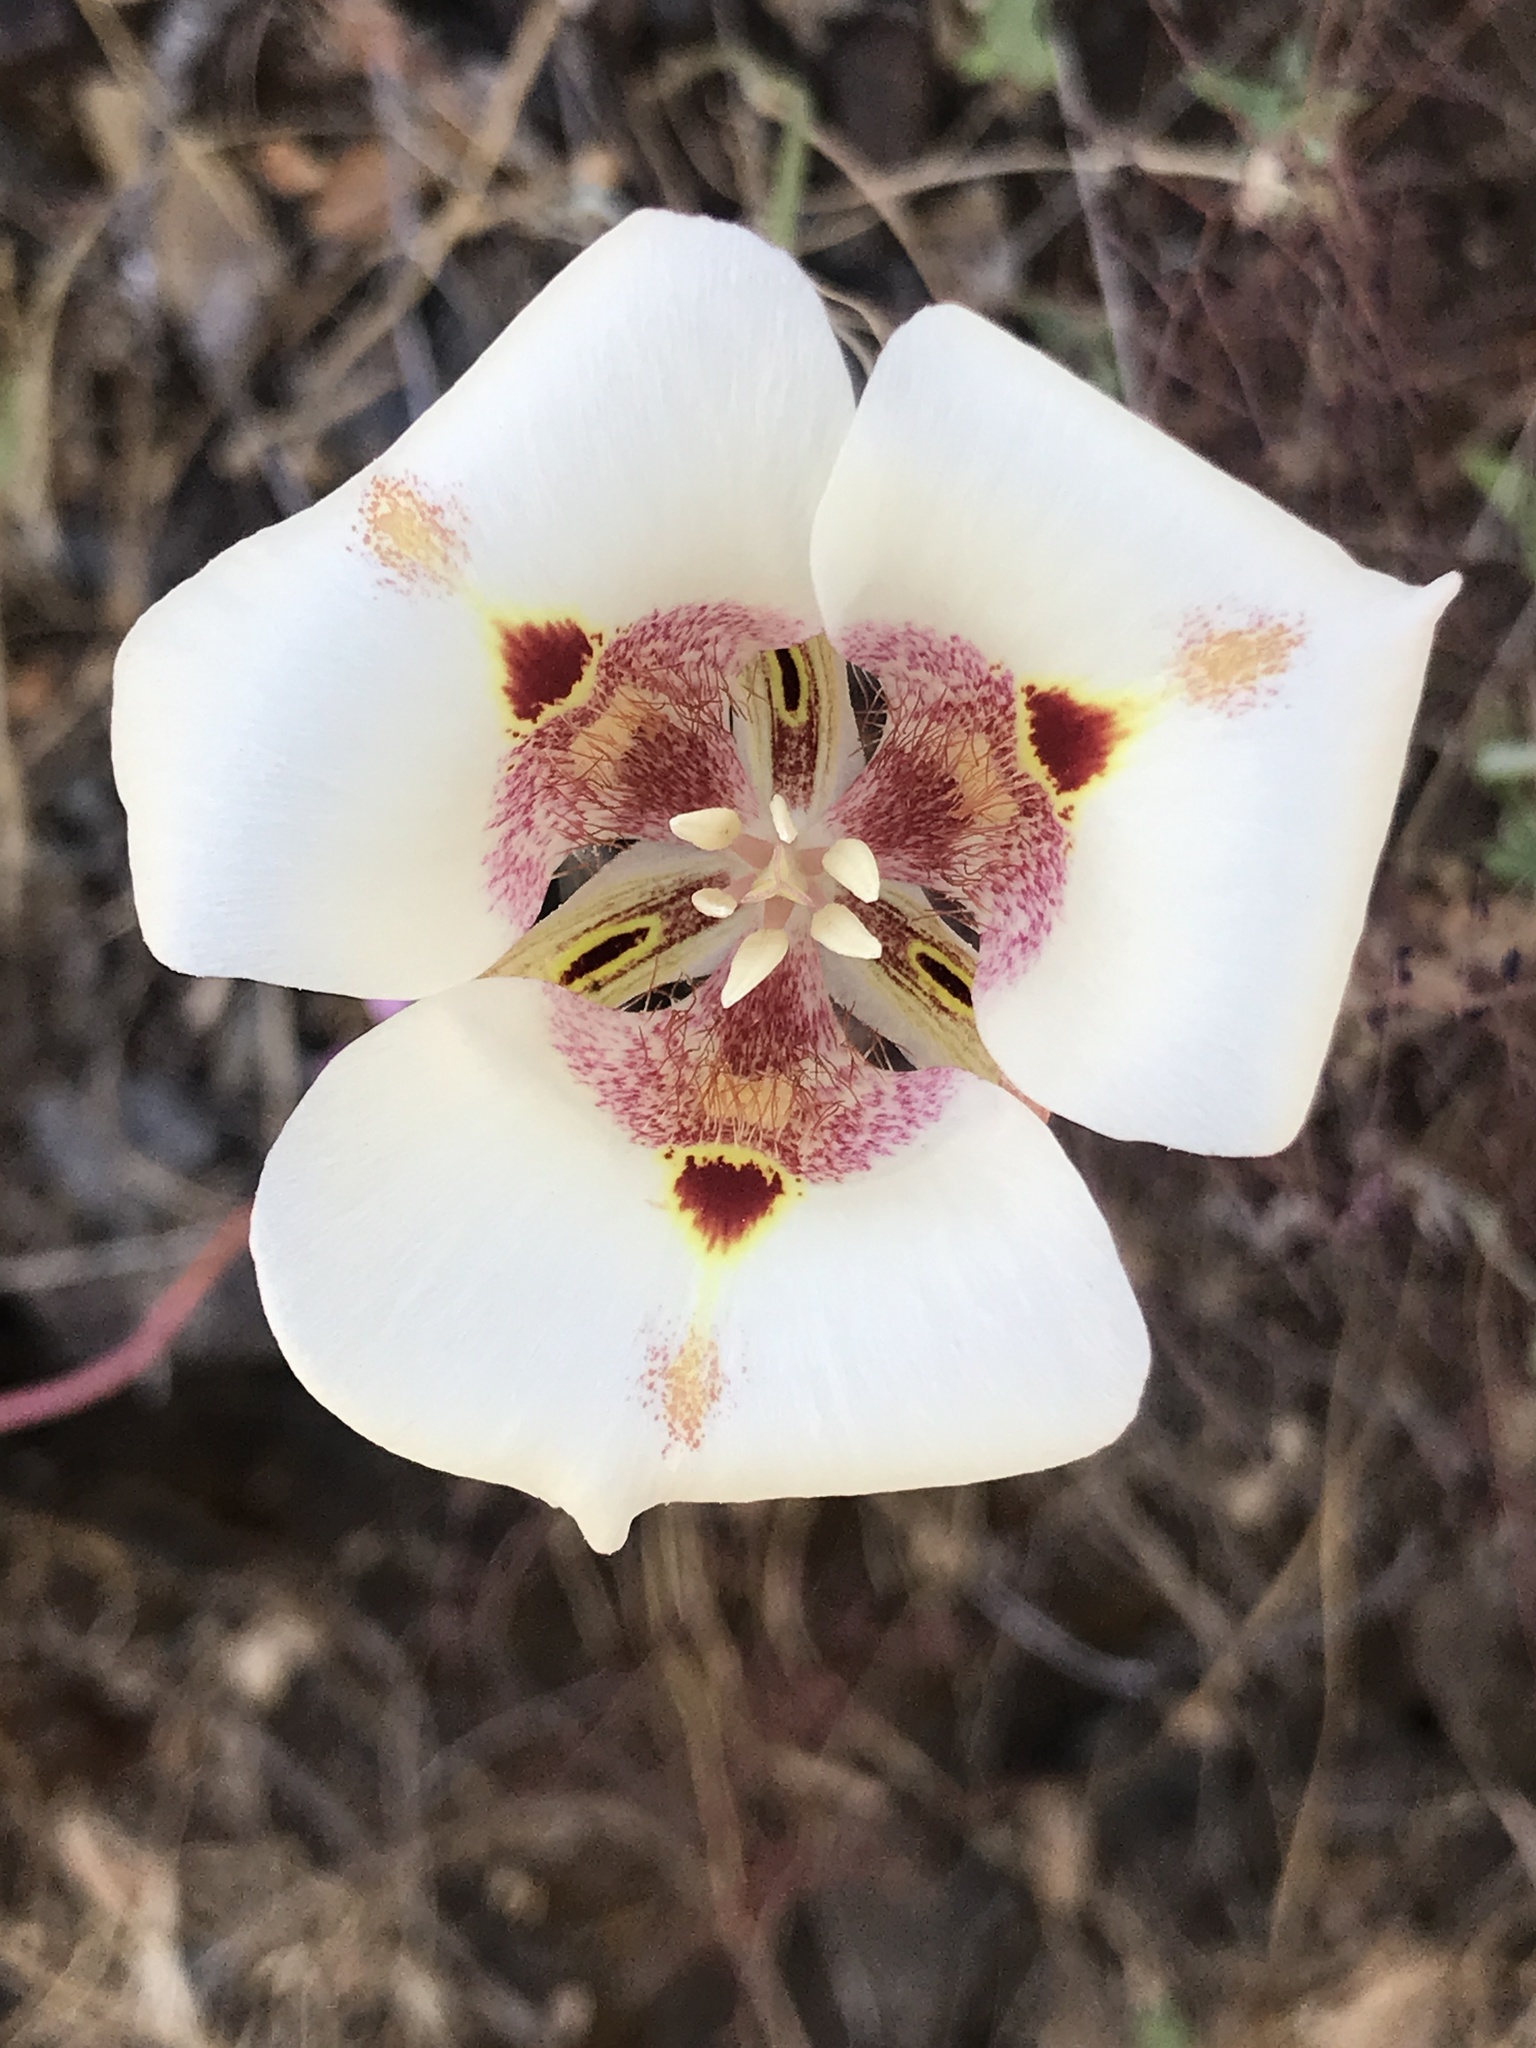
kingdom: Plantae
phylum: Tracheophyta
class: Liliopsida
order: Liliales
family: Liliaceae
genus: Calochortus
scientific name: Calochortus venustus
